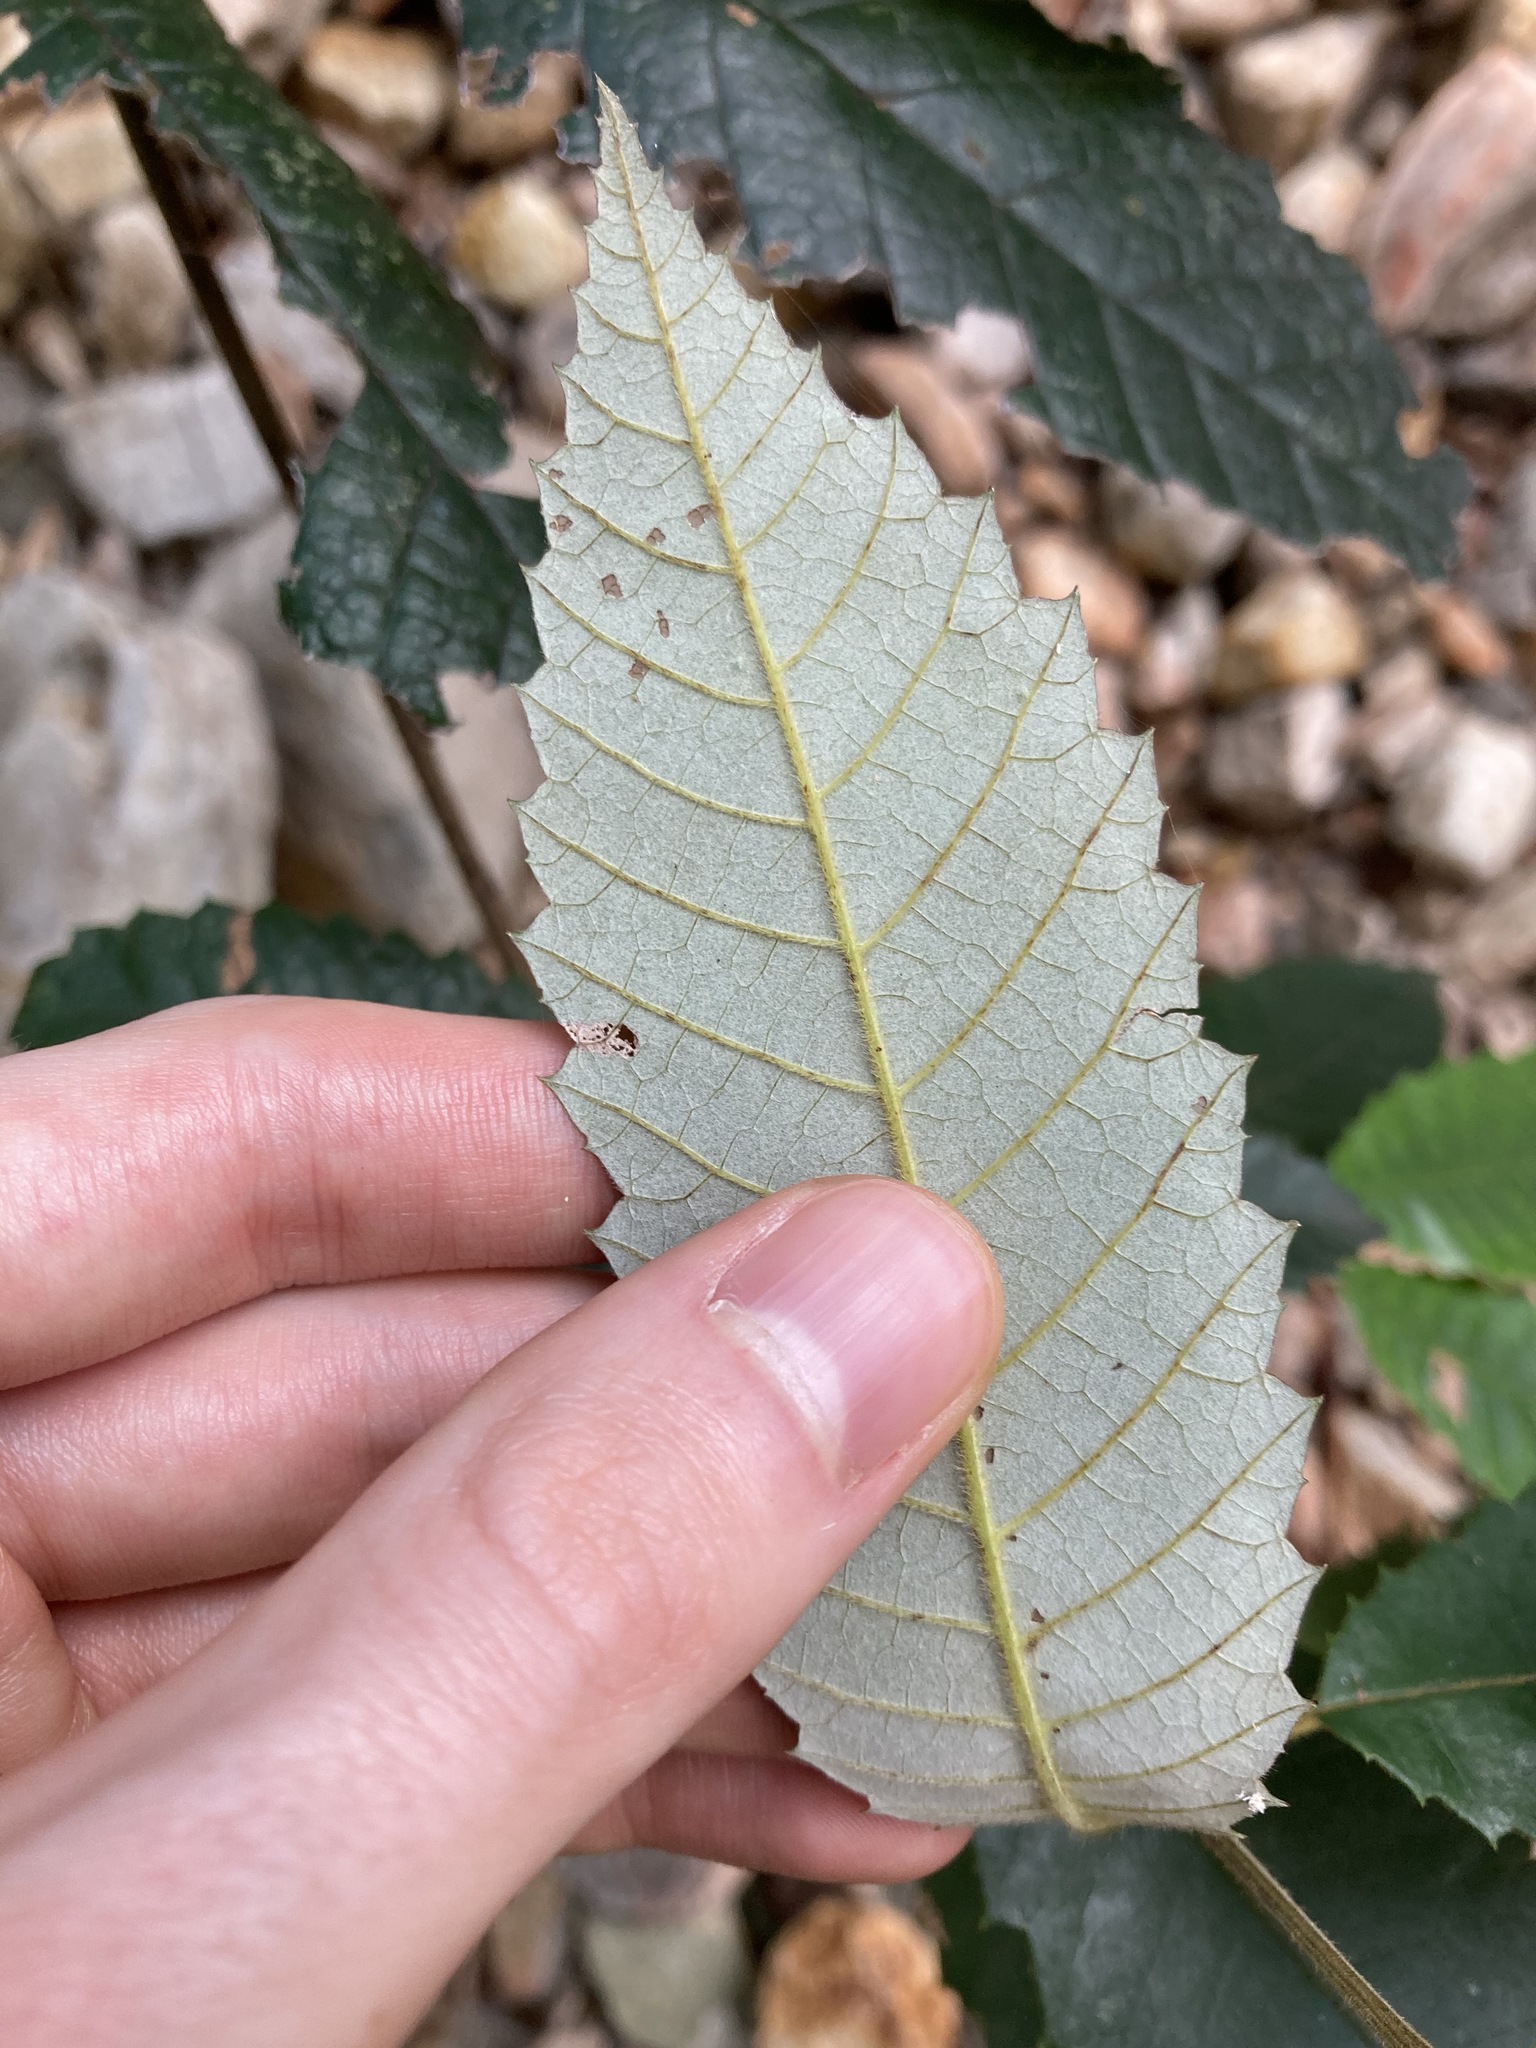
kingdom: Plantae
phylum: Tracheophyta
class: Magnoliopsida
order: Oxalidales
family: Cunoniaceae
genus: Callicoma
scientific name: Callicoma serratifolia
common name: Black wattle
